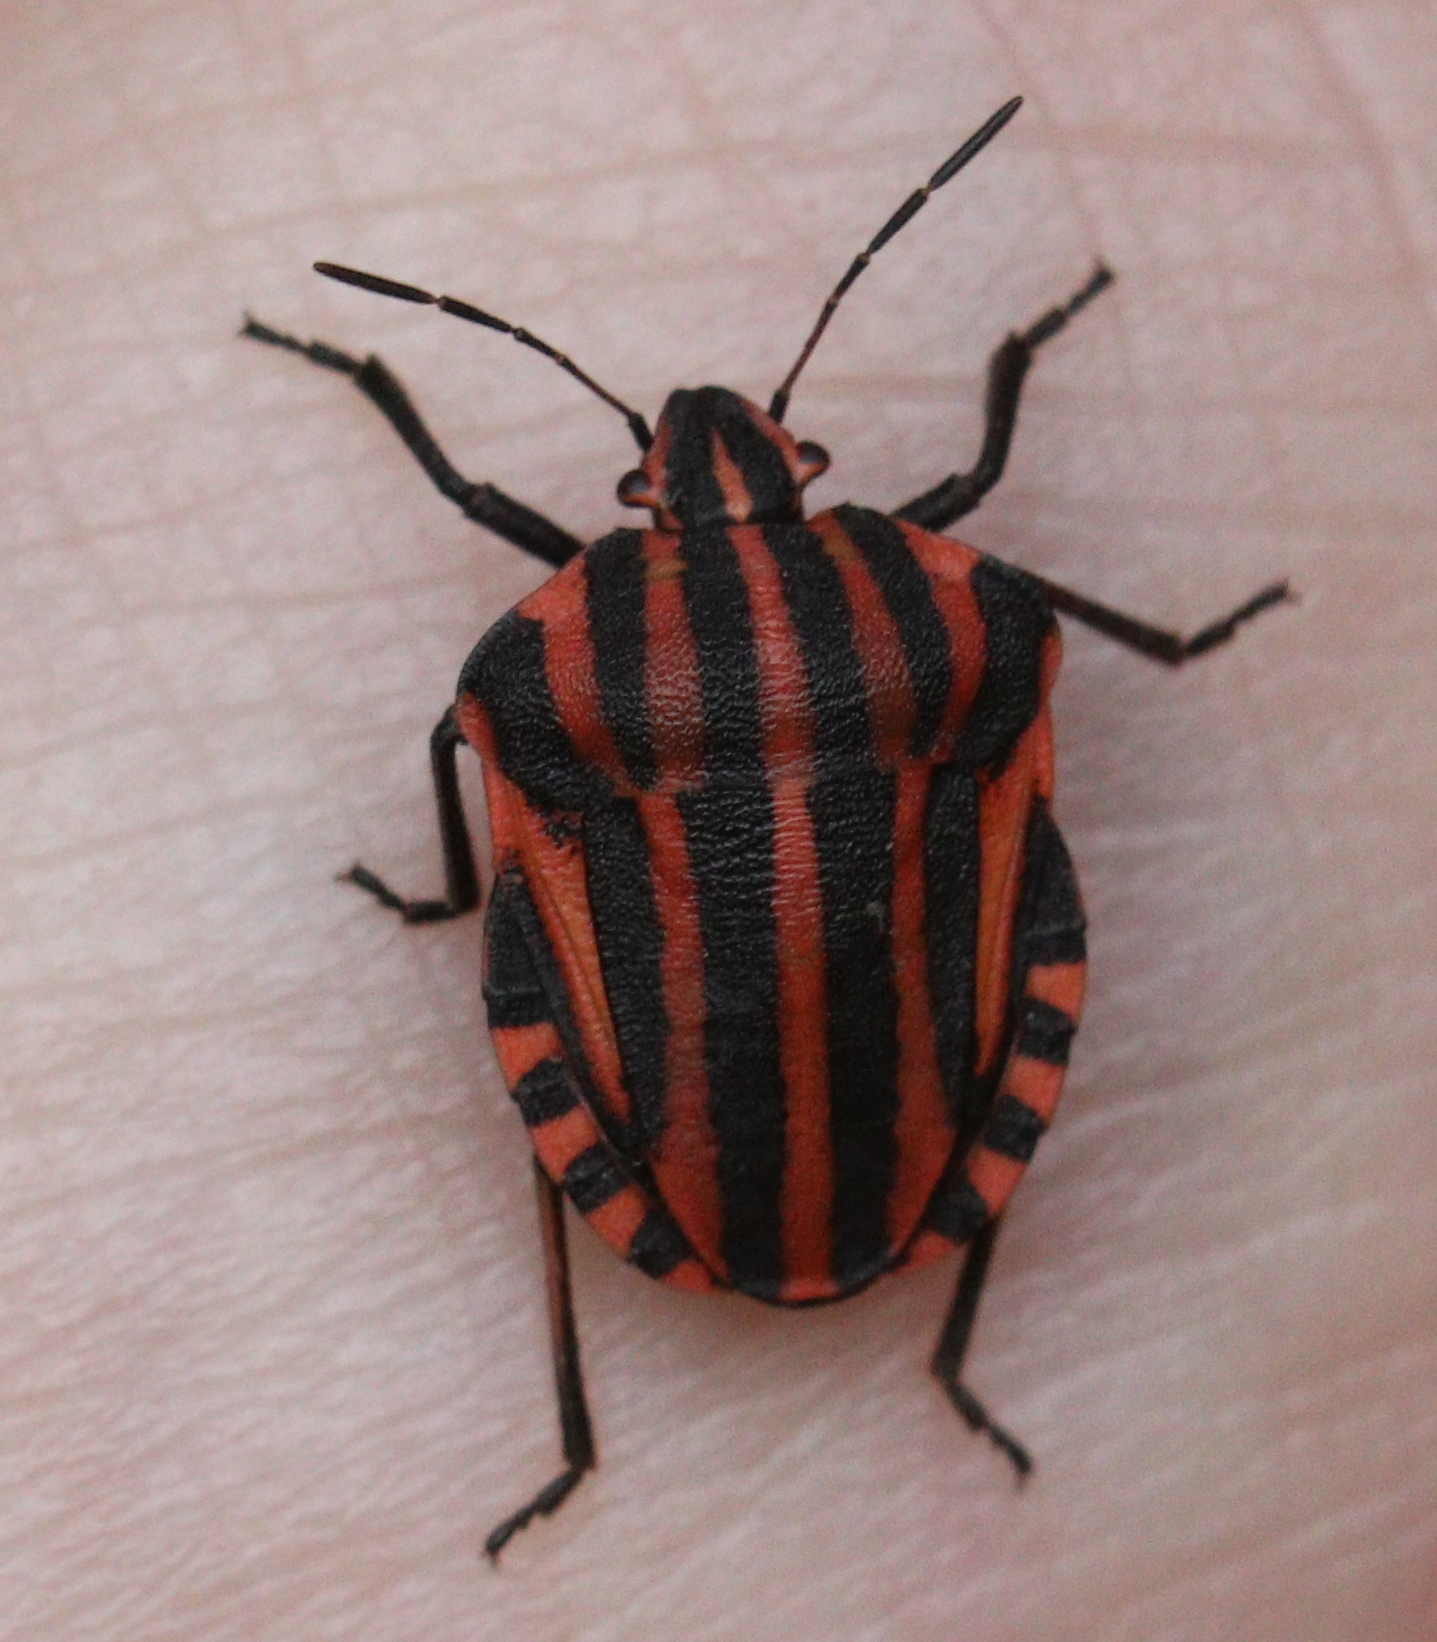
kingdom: Animalia
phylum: Arthropoda
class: Insecta
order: Hemiptera
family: Pentatomidae
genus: Graphosoma
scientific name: Graphosoma italicum
